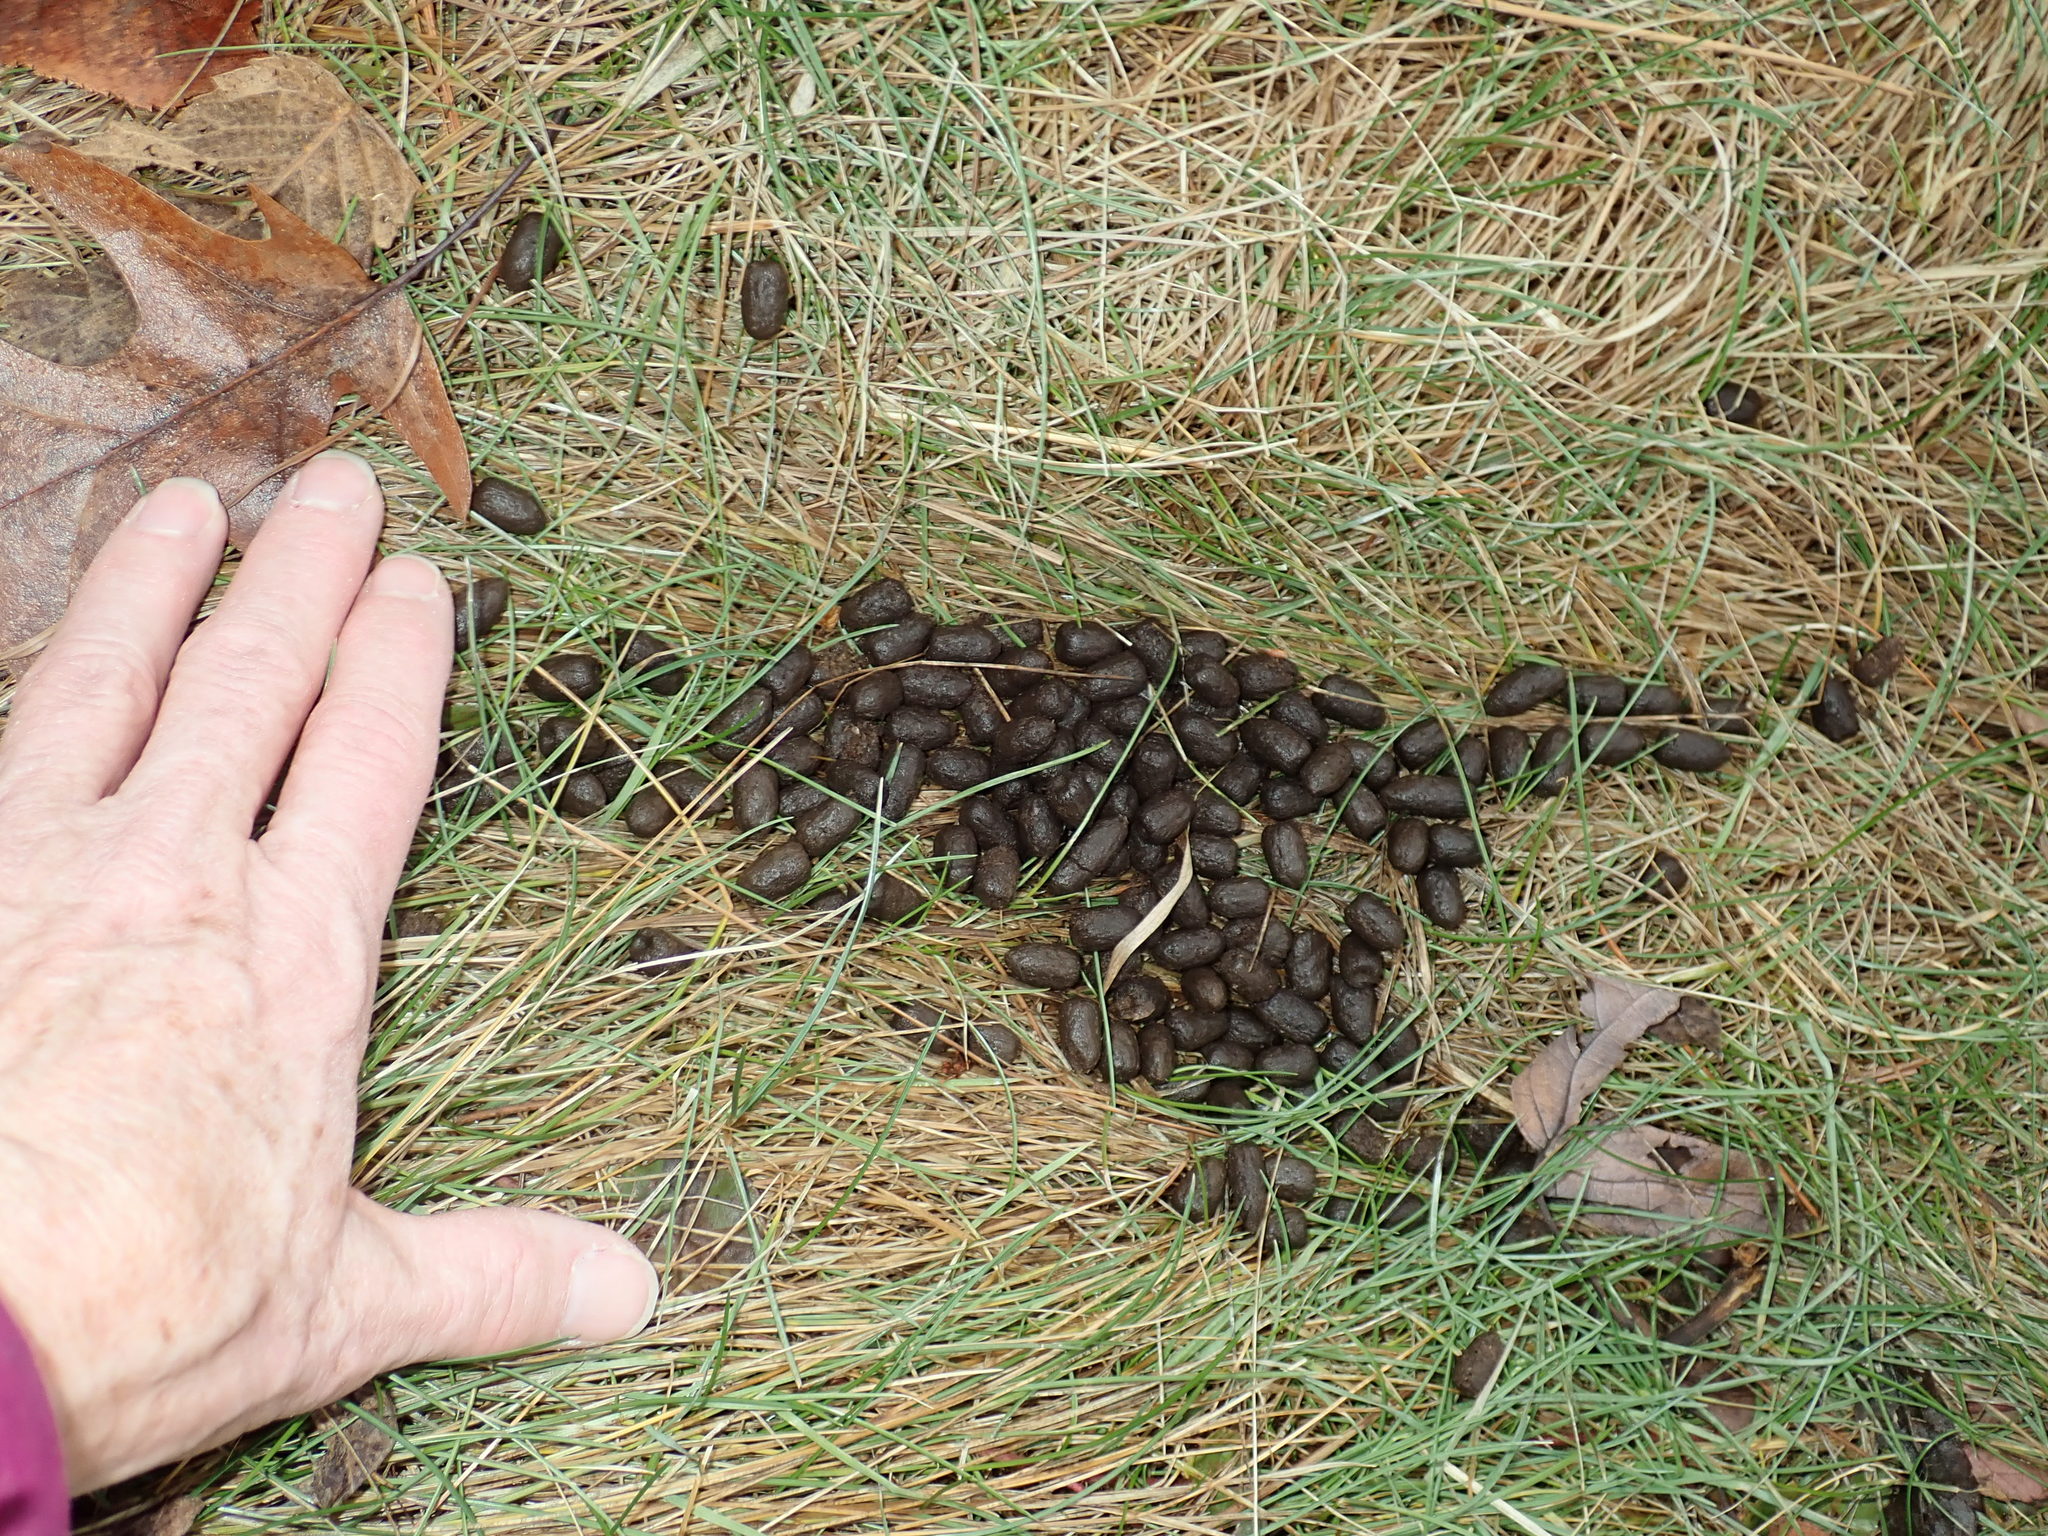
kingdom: Animalia
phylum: Chordata
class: Mammalia
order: Artiodactyla
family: Cervidae
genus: Odocoileus
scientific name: Odocoileus virginianus
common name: White-tailed deer
